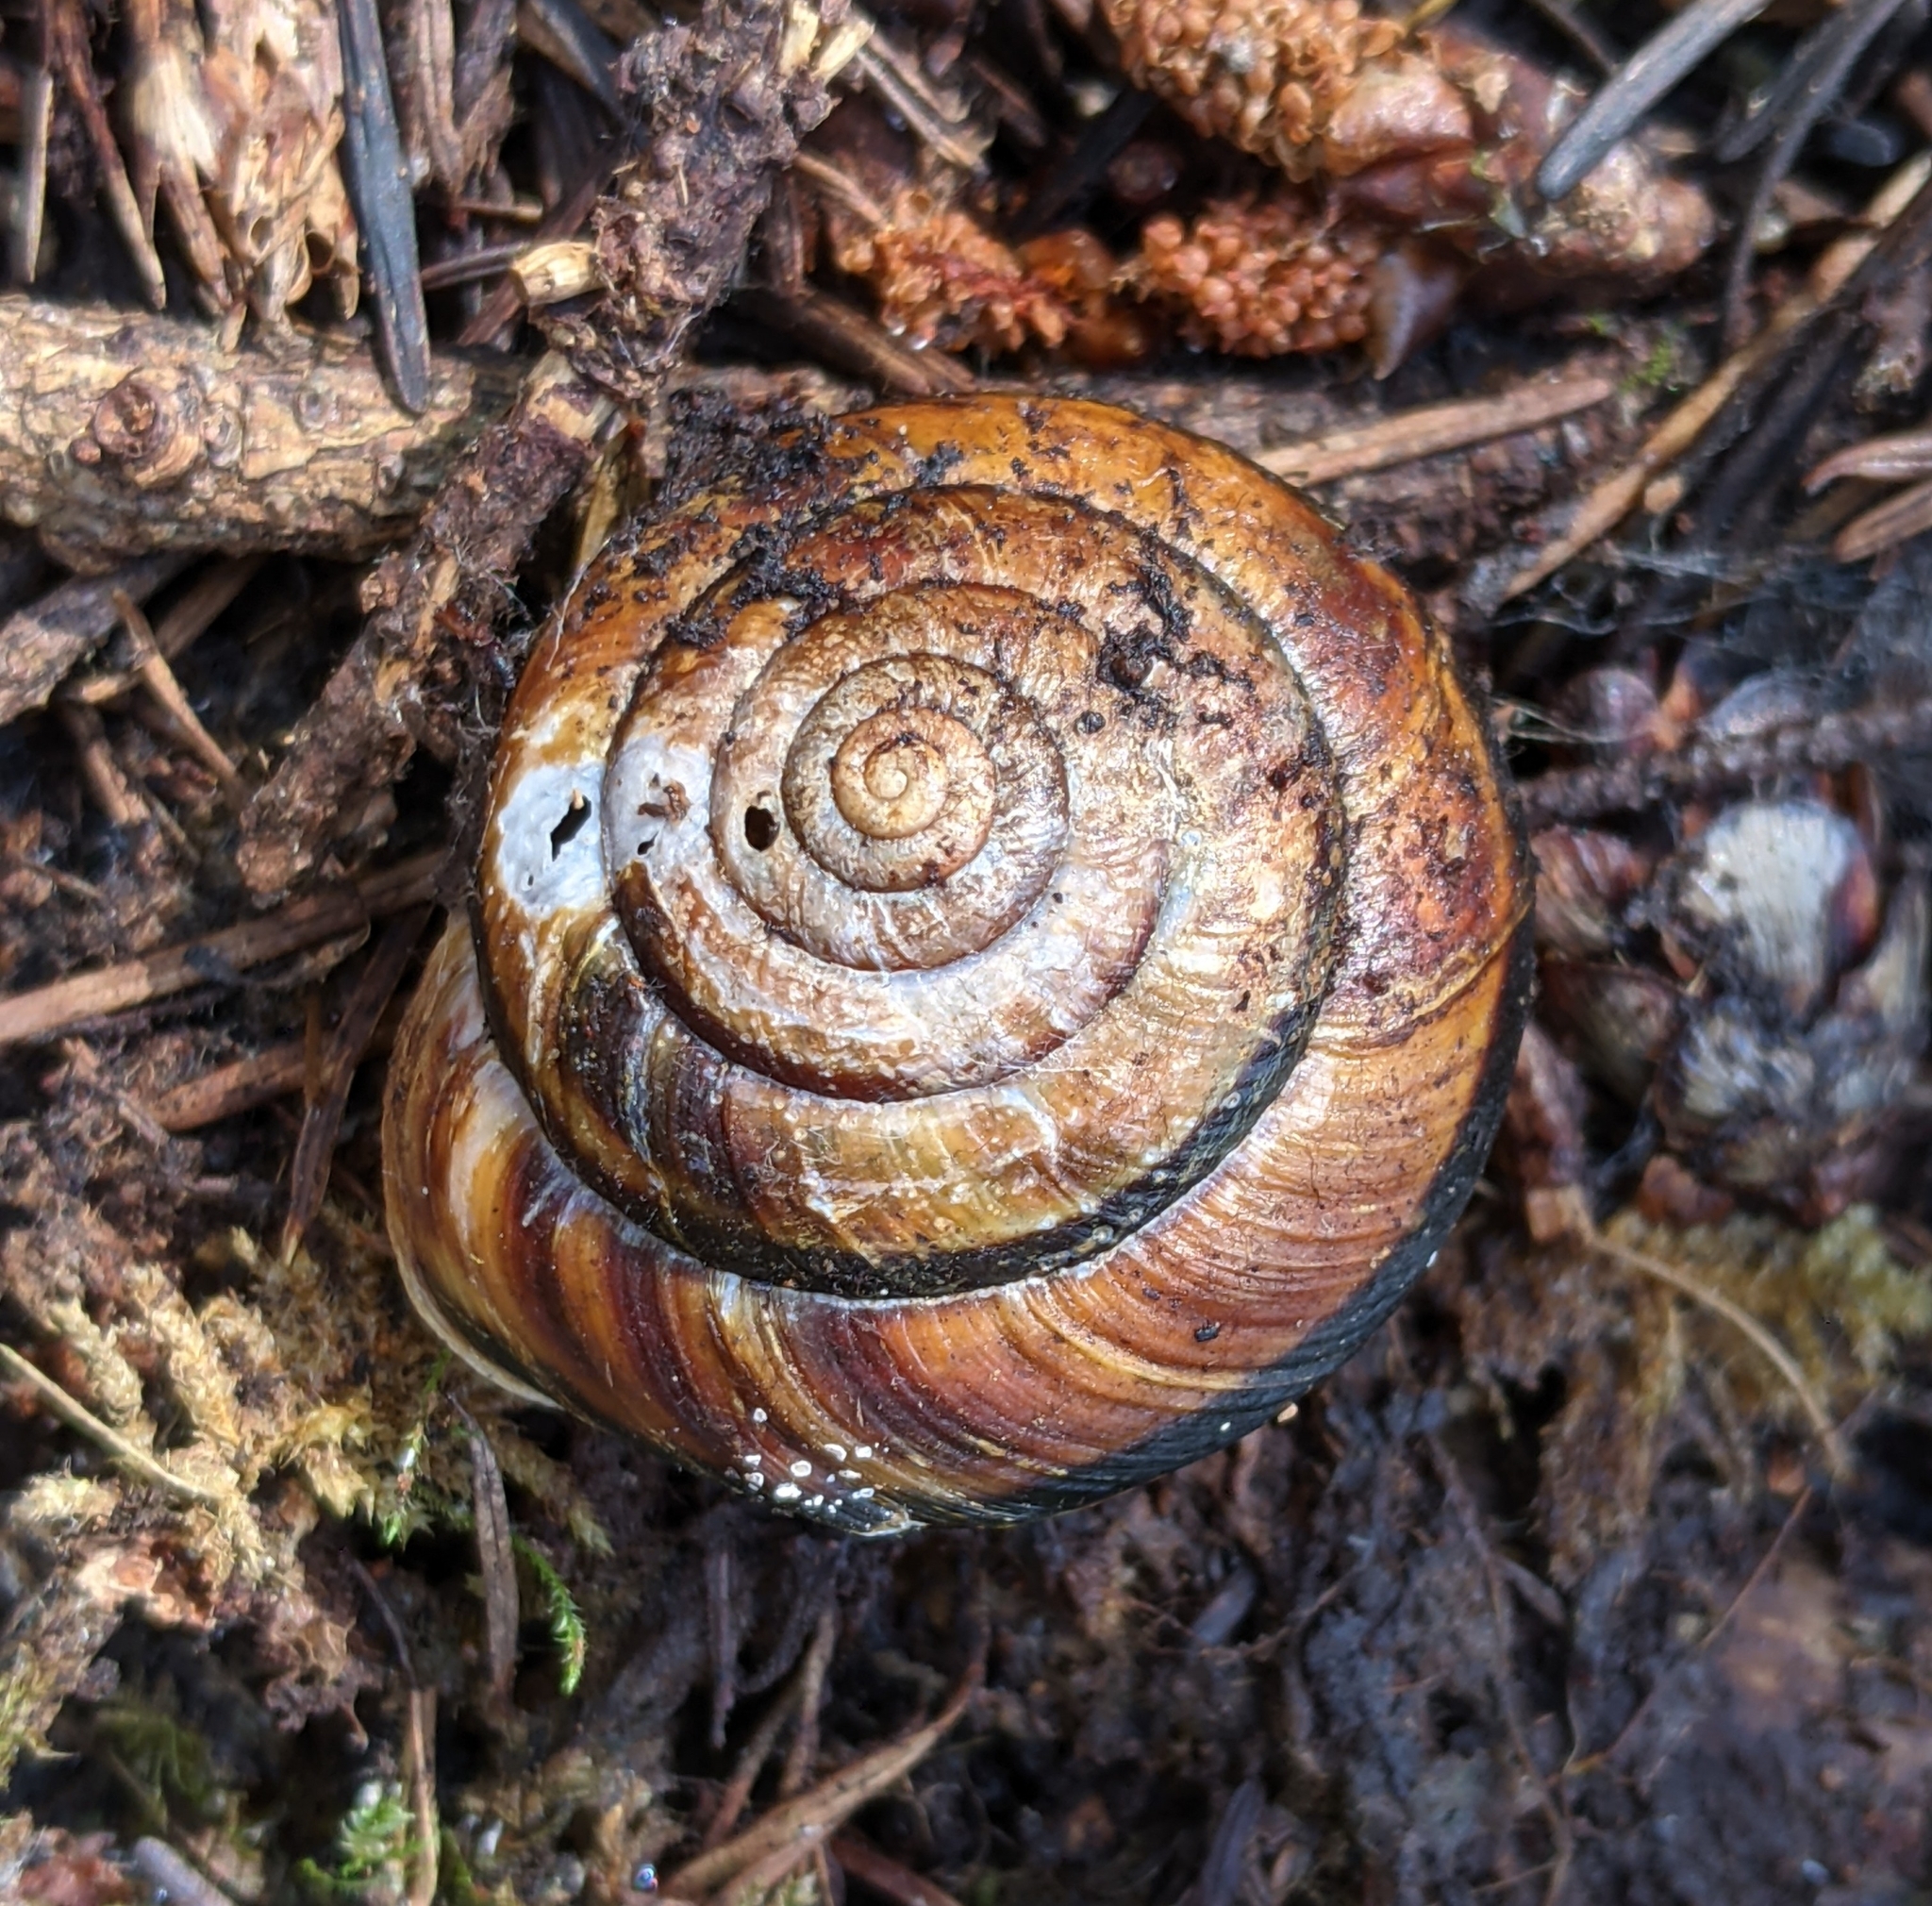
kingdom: Animalia
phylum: Mollusca
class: Gastropoda
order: Stylommatophora
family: Xanthonychidae
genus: Monadenia
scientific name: Monadenia fidelis
